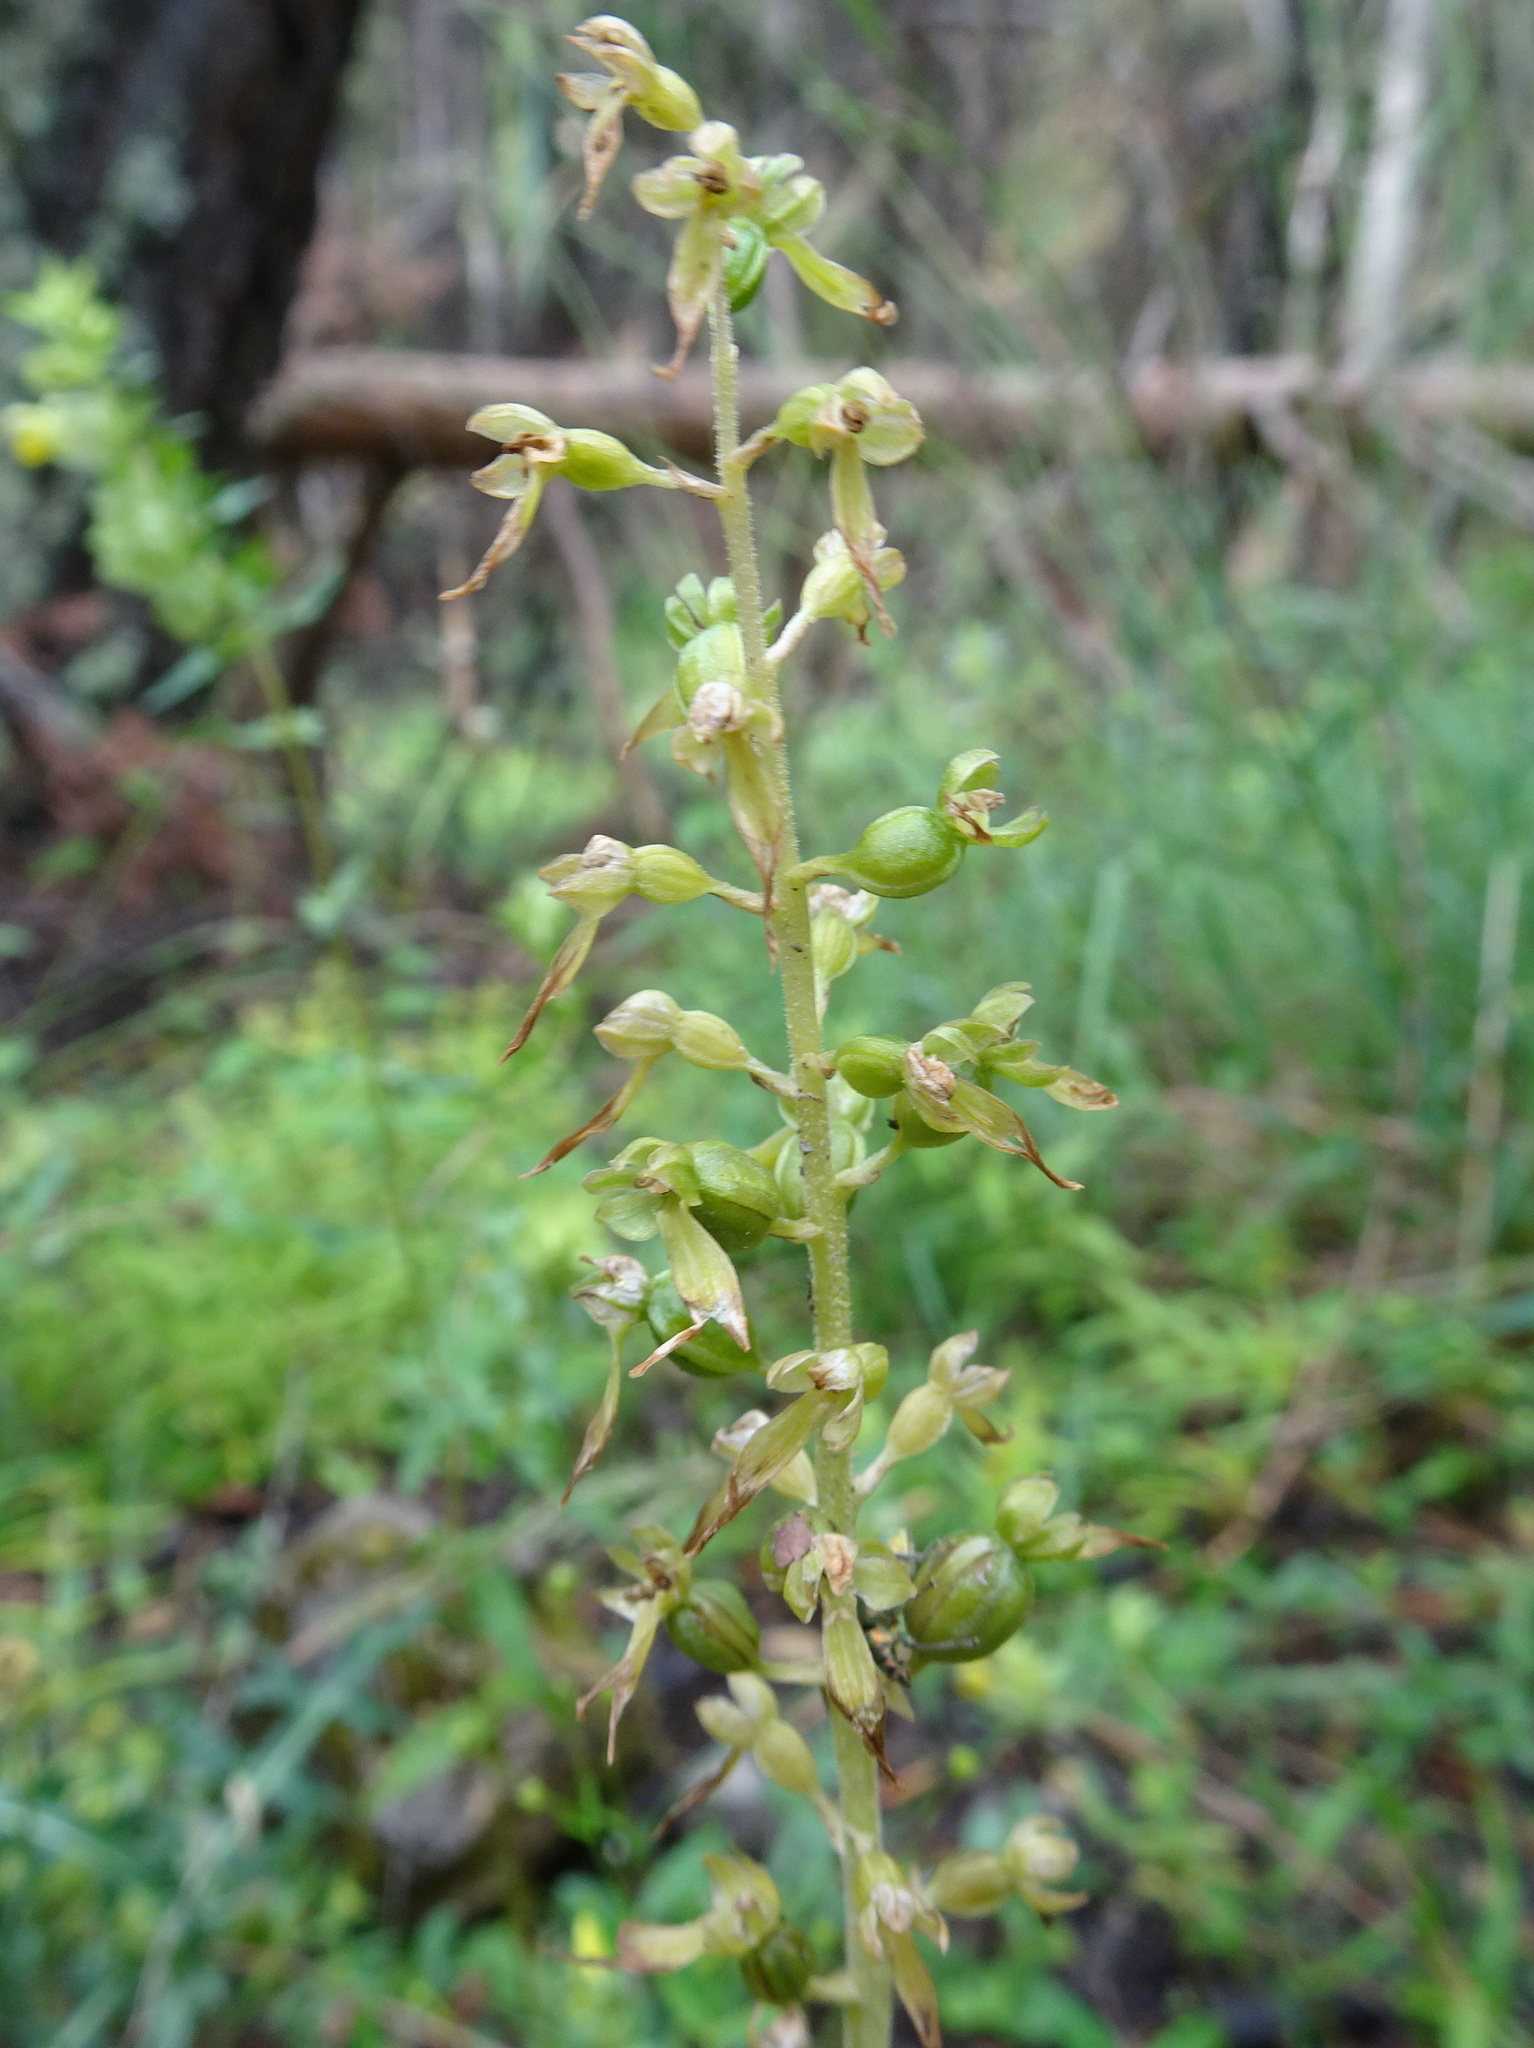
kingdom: Plantae
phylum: Tracheophyta
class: Liliopsida
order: Asparagales
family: Orchidaceae
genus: Neottia
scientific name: Neottia ovata
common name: Common twayblade
